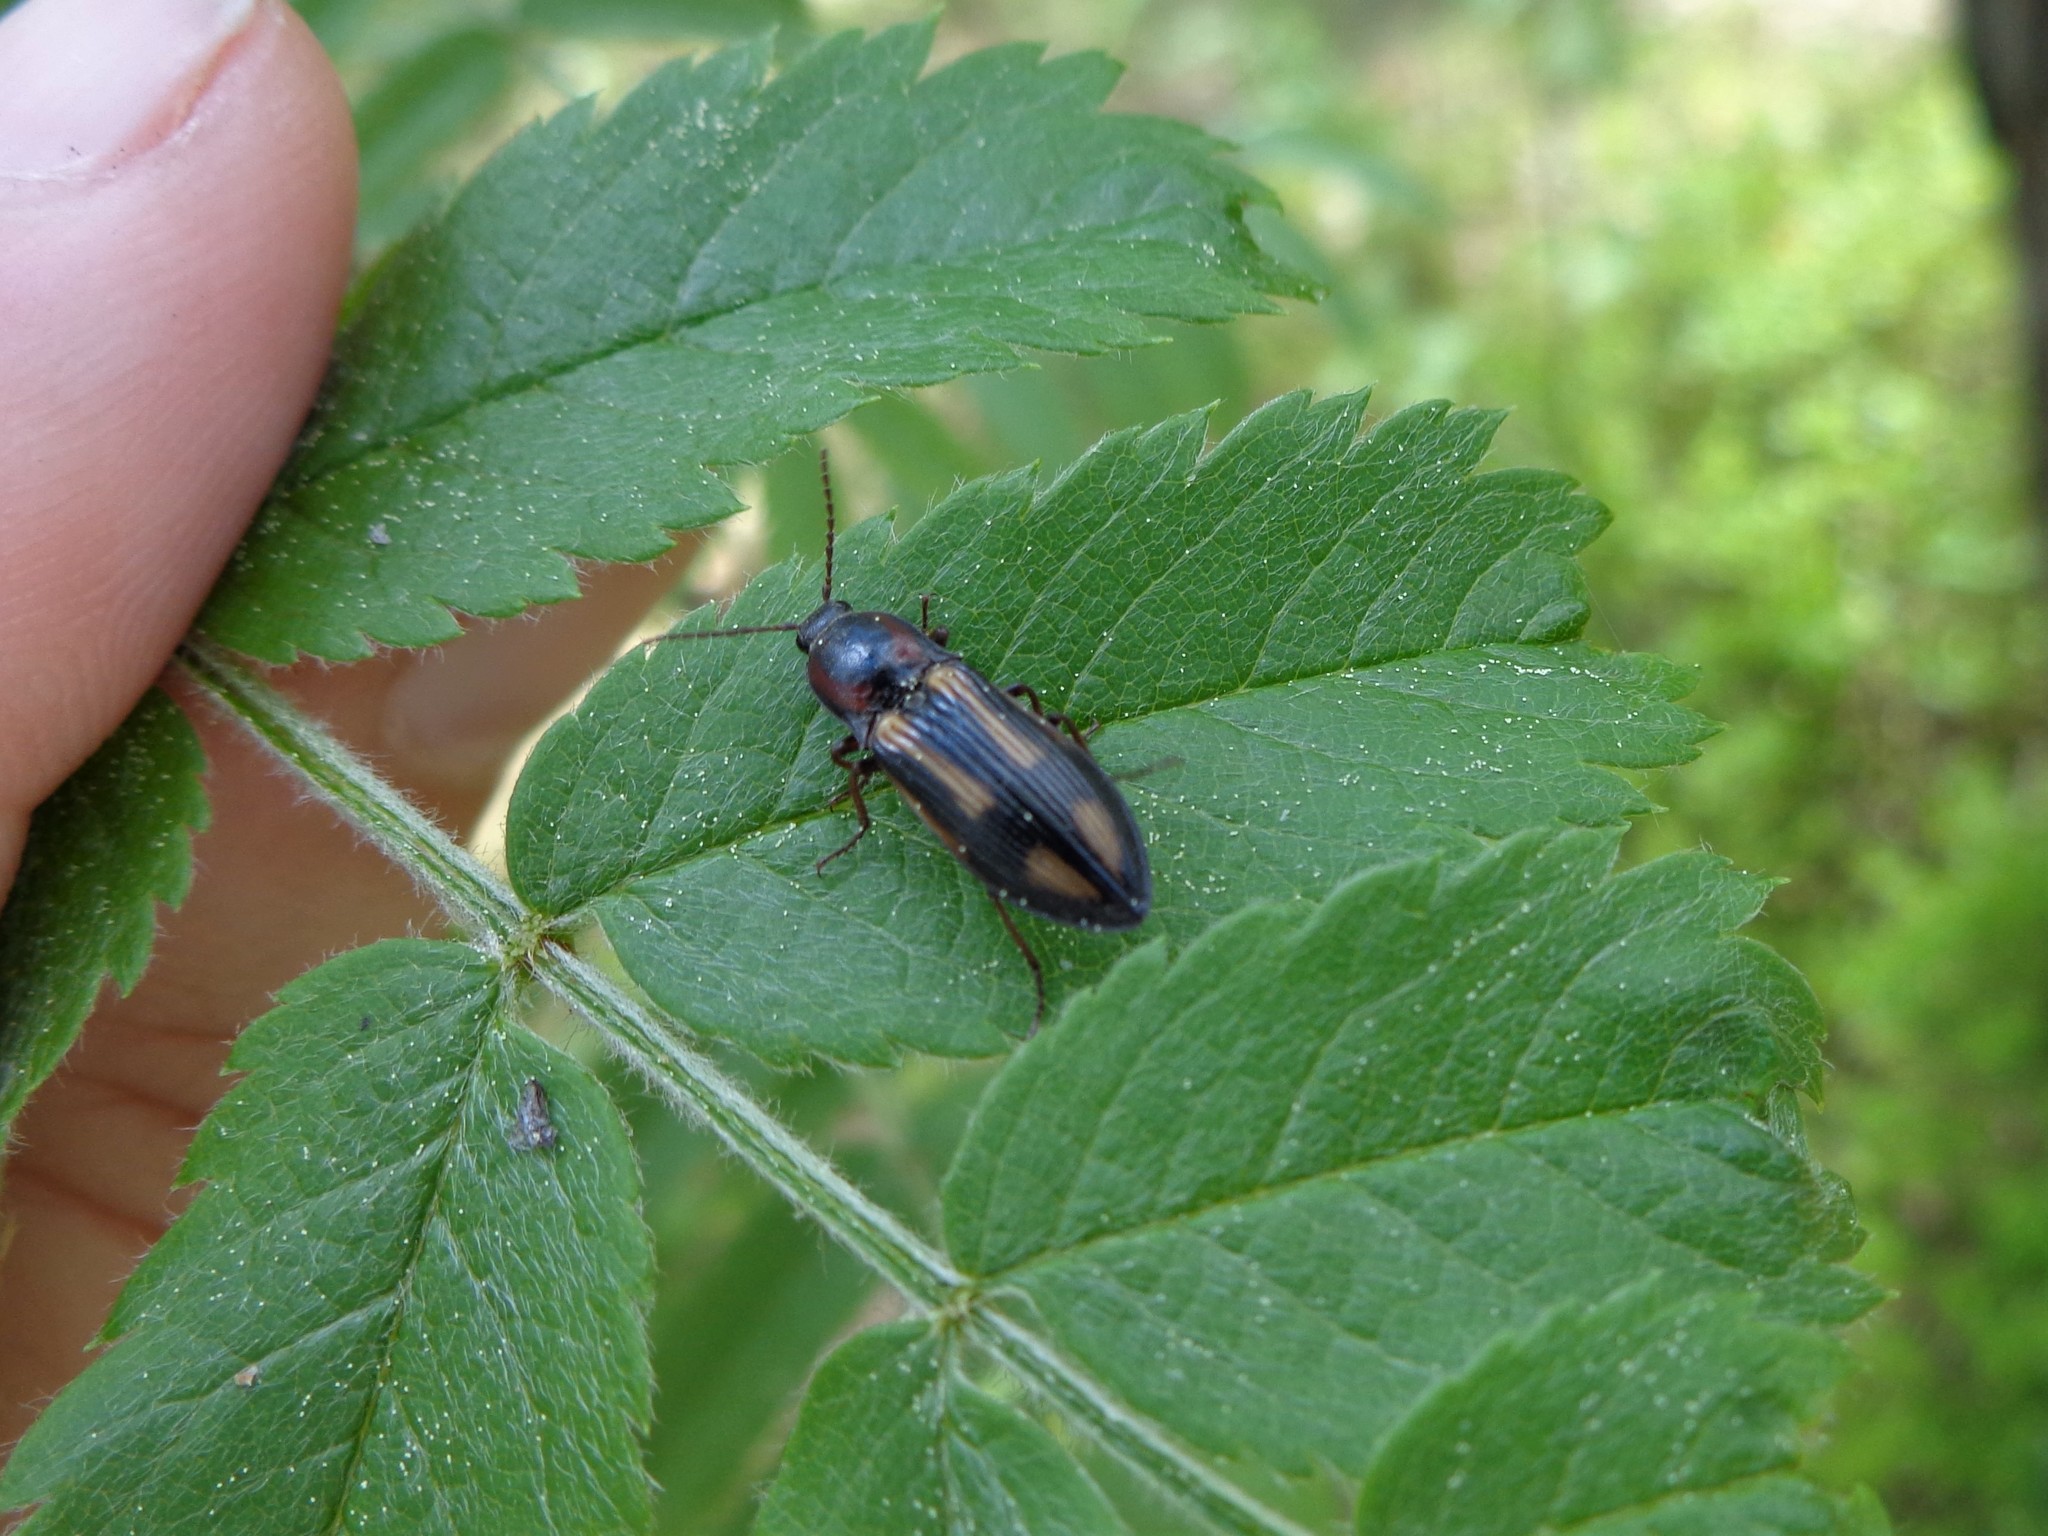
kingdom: Animalia
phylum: Arthropoda
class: Insecta
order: Coleoptera
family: Elateridae
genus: Selatosomus
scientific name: Selatosomus cruciatus
